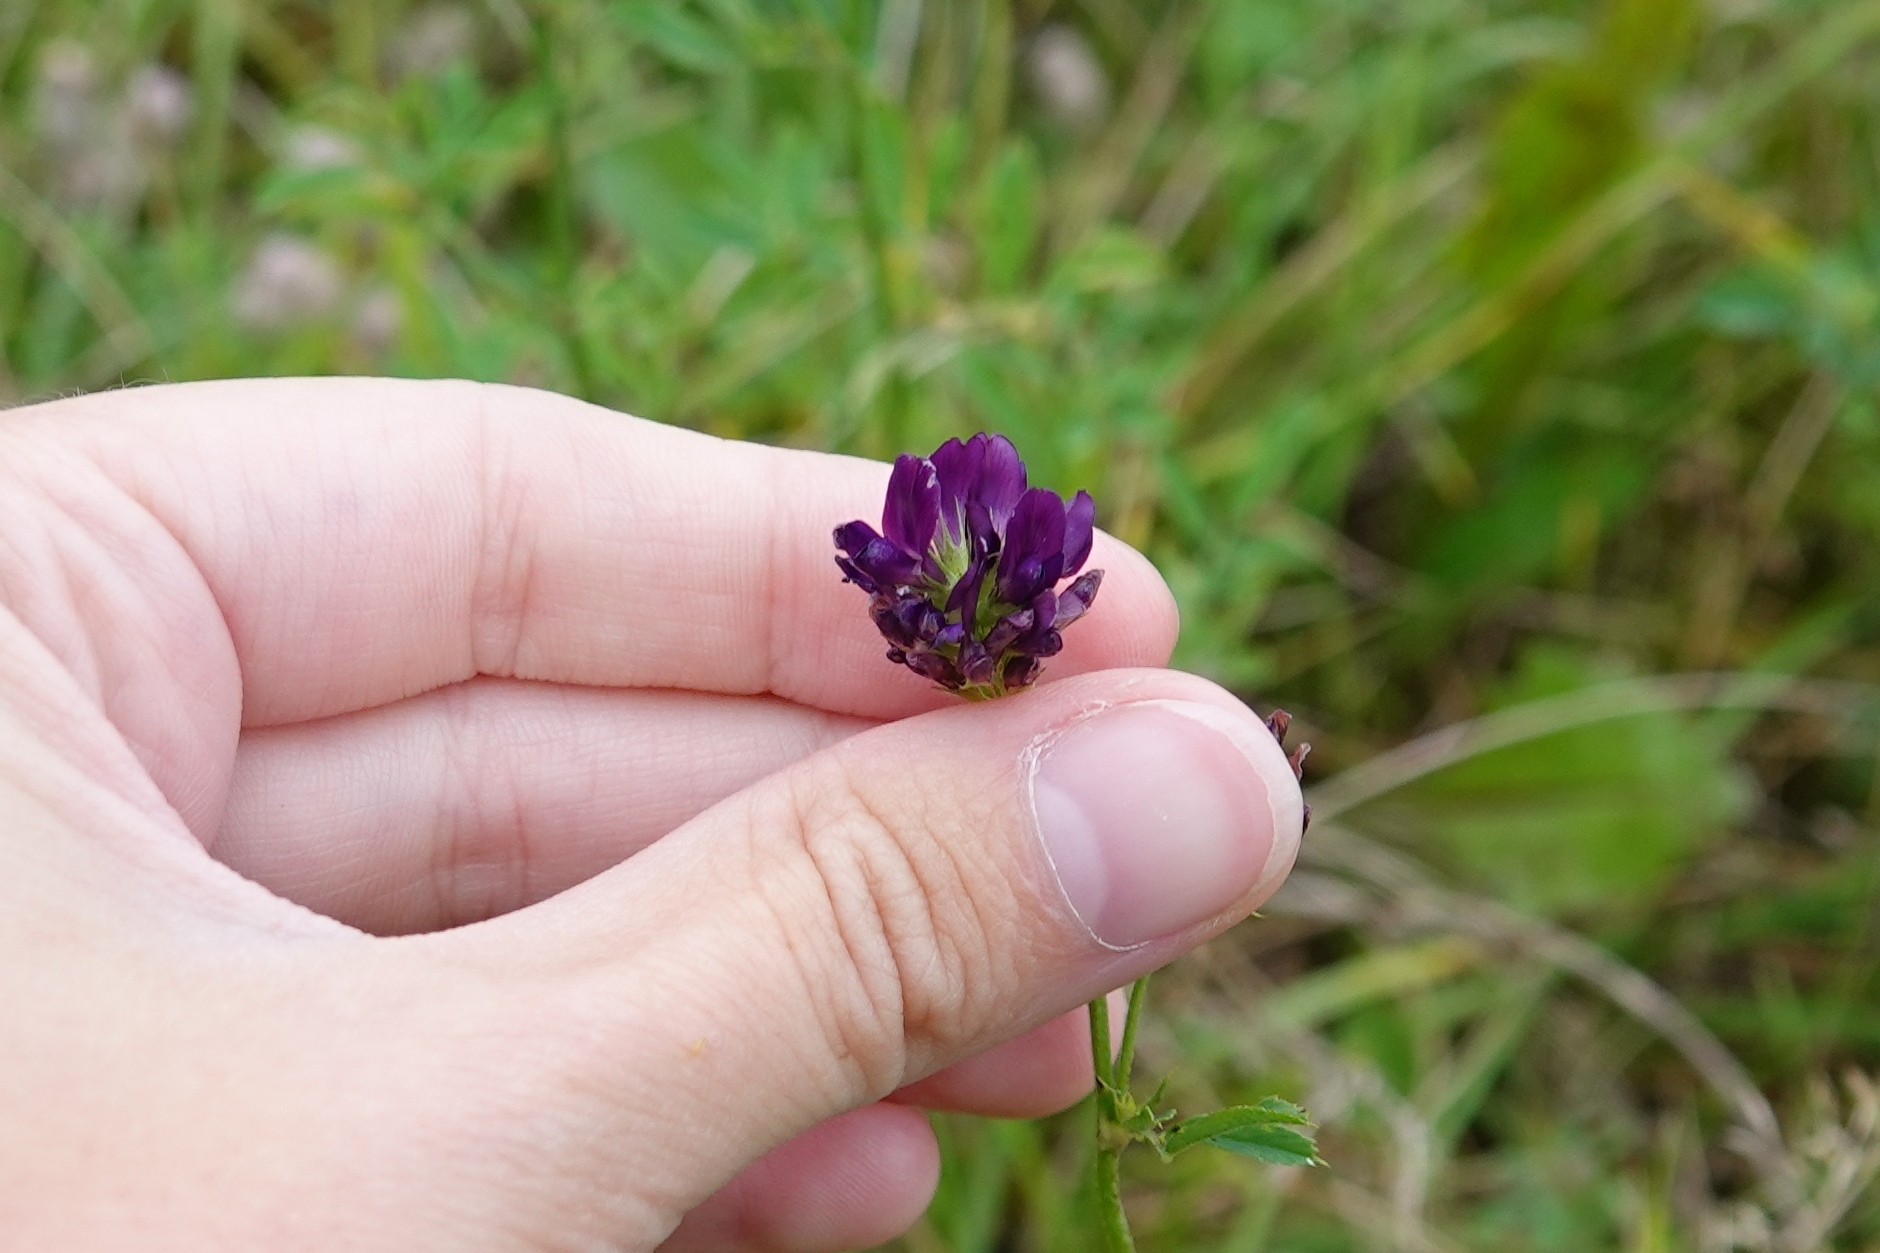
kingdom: Plantae
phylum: Tracheophyta
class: Magnoliopsida
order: Fabales
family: Fabaceae
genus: Medicago
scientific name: Medicago sativa
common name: Alfalfa
